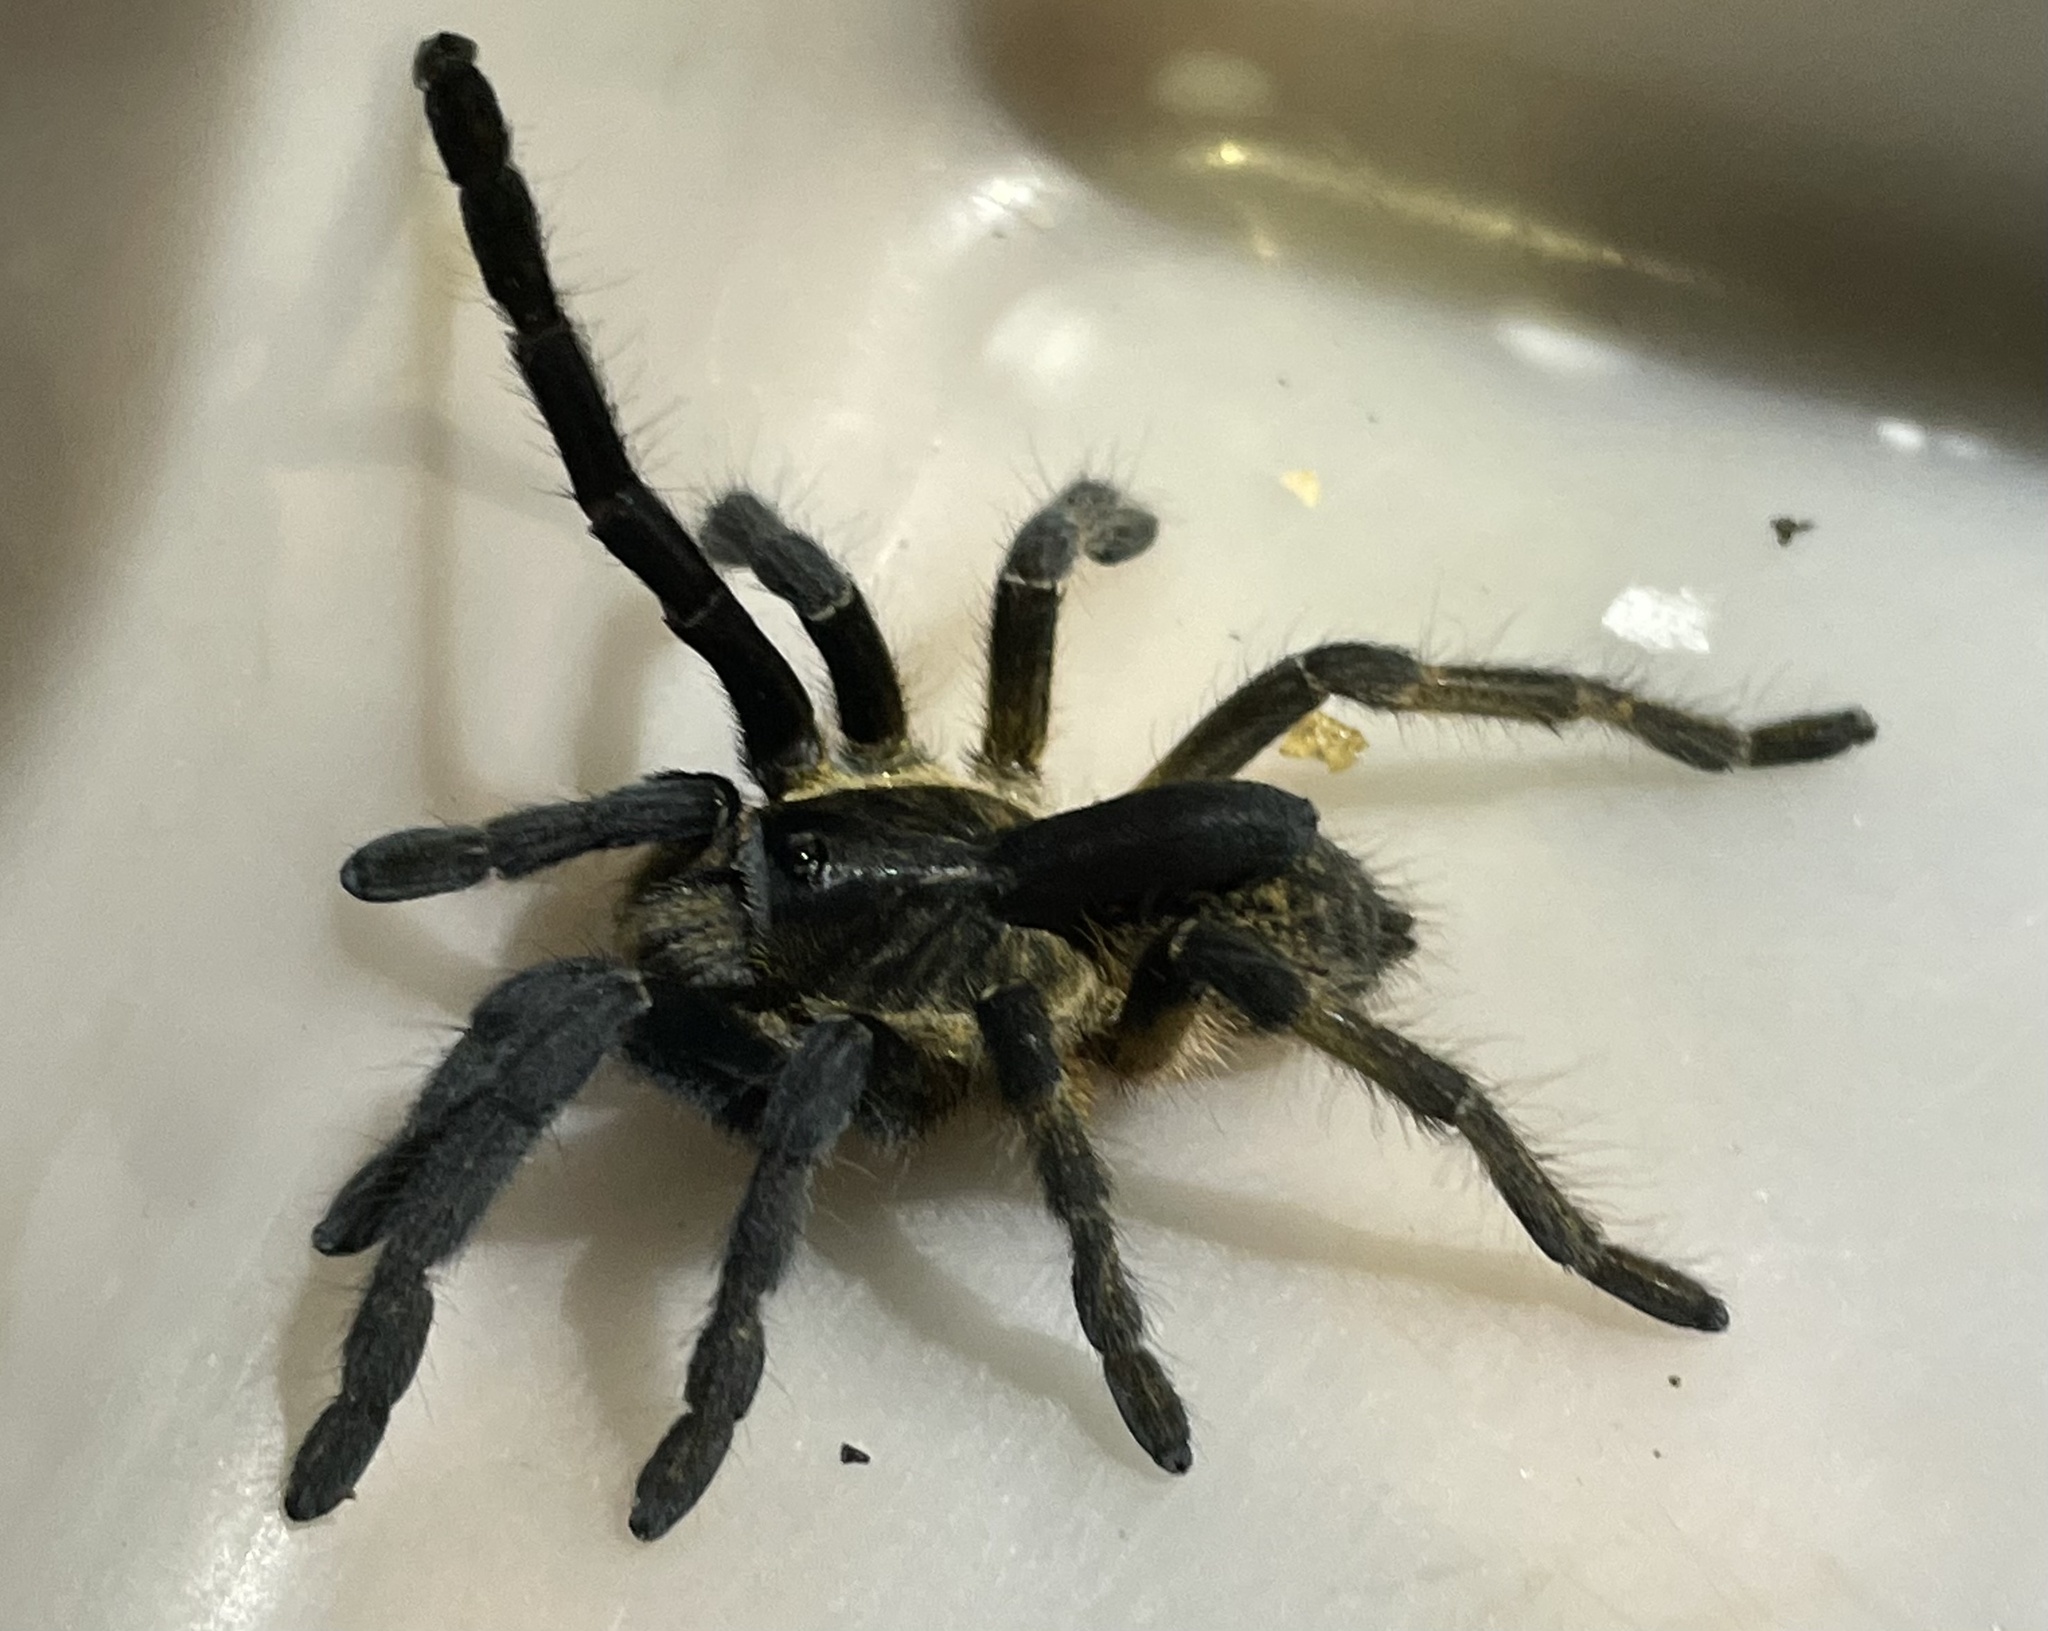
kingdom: Animalia
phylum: Arthropoda
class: Arachnida
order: Araneae
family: Theraphosidae
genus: Ceratogyrus
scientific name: Ceratogyrus attonitifer
